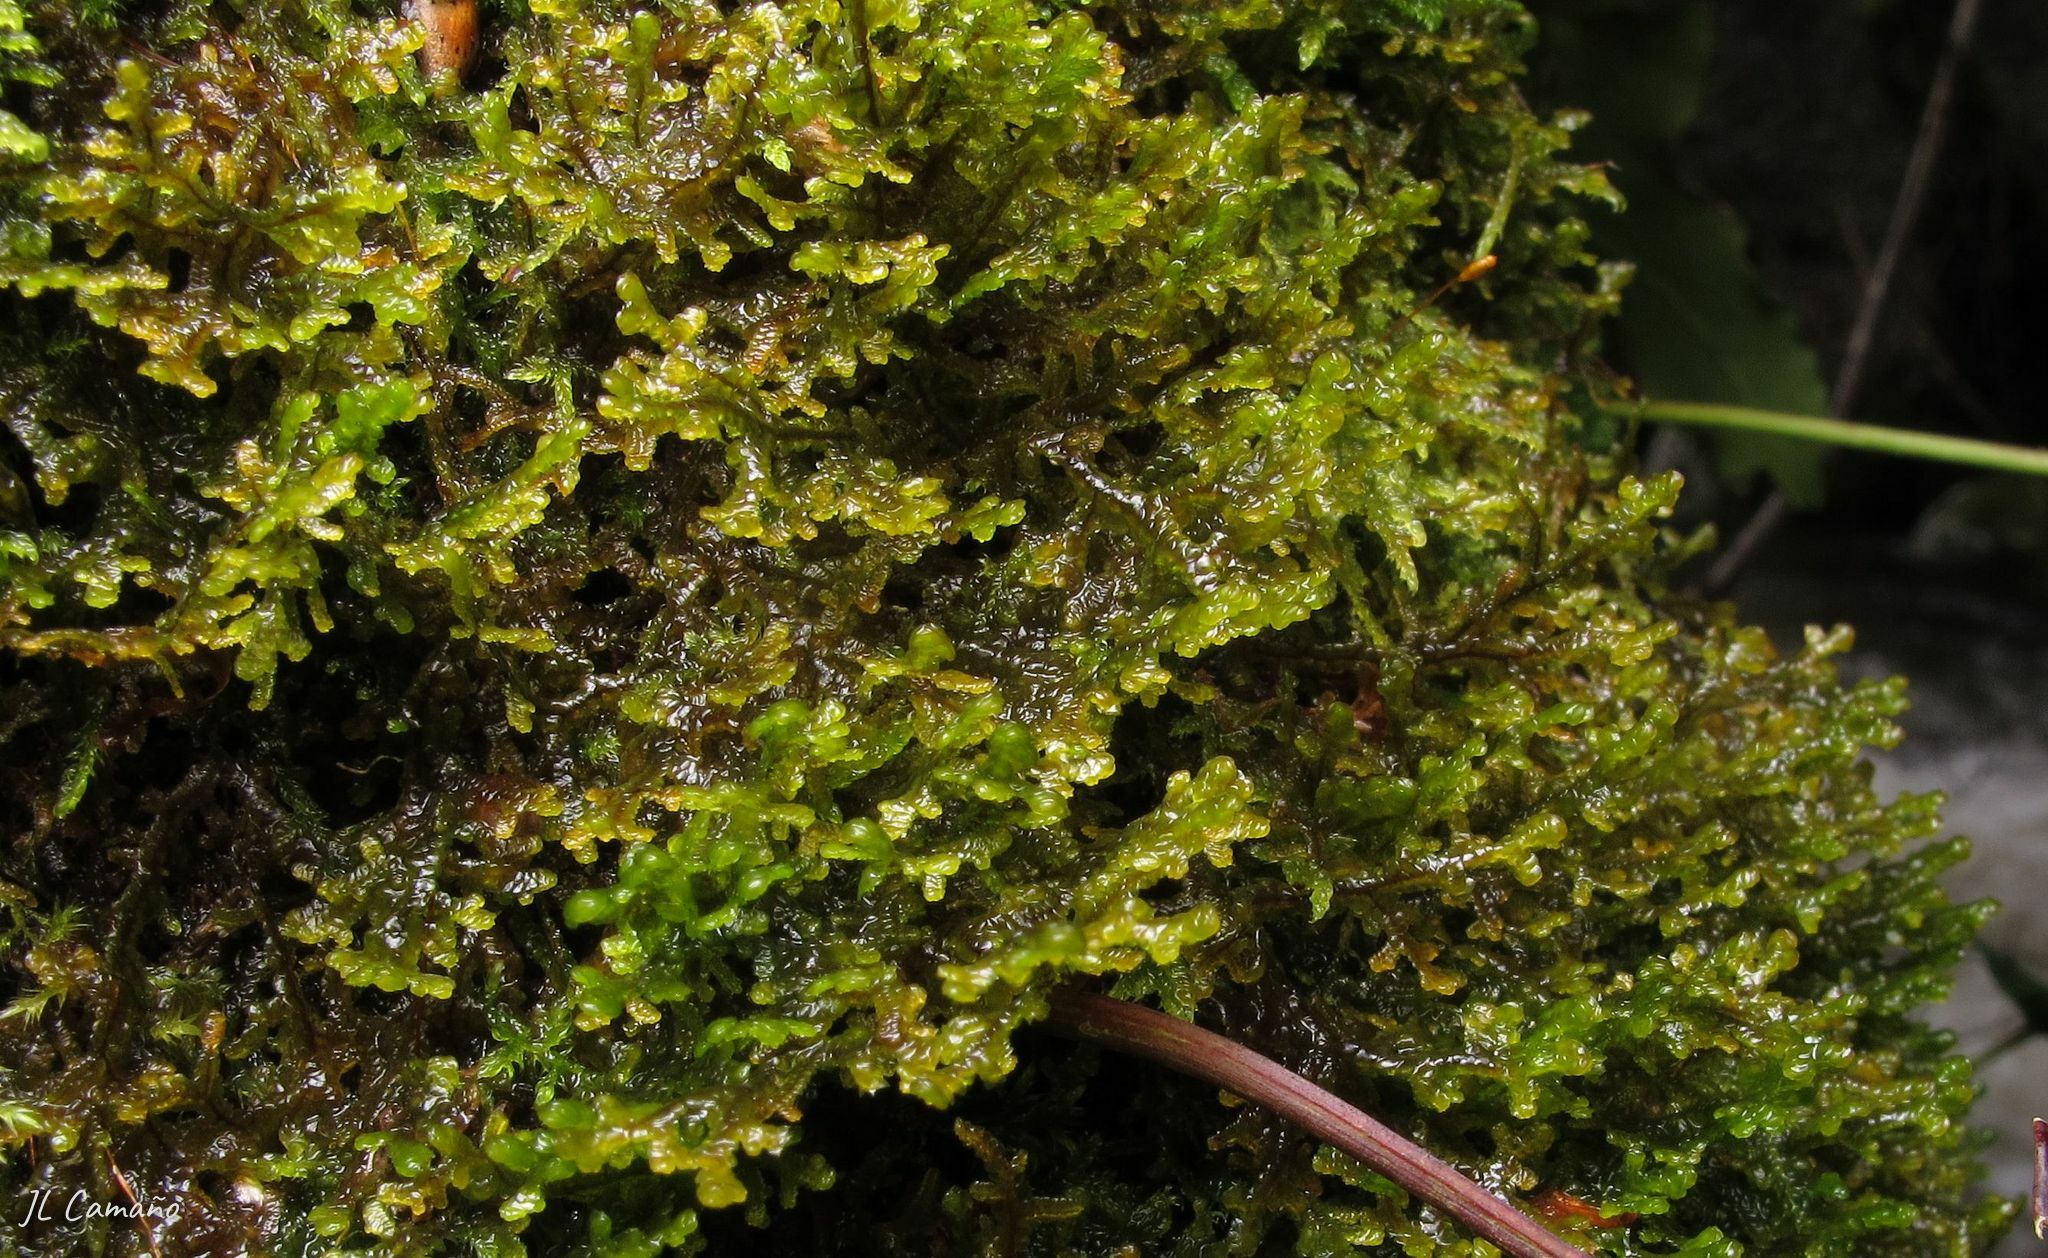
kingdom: Plantae
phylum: Marchantiophyta
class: Jungermanniopsida
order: Porellales
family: Frullaniaceae
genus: Frullania
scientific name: Frullania tamarisci
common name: Tamarisk scalewort
